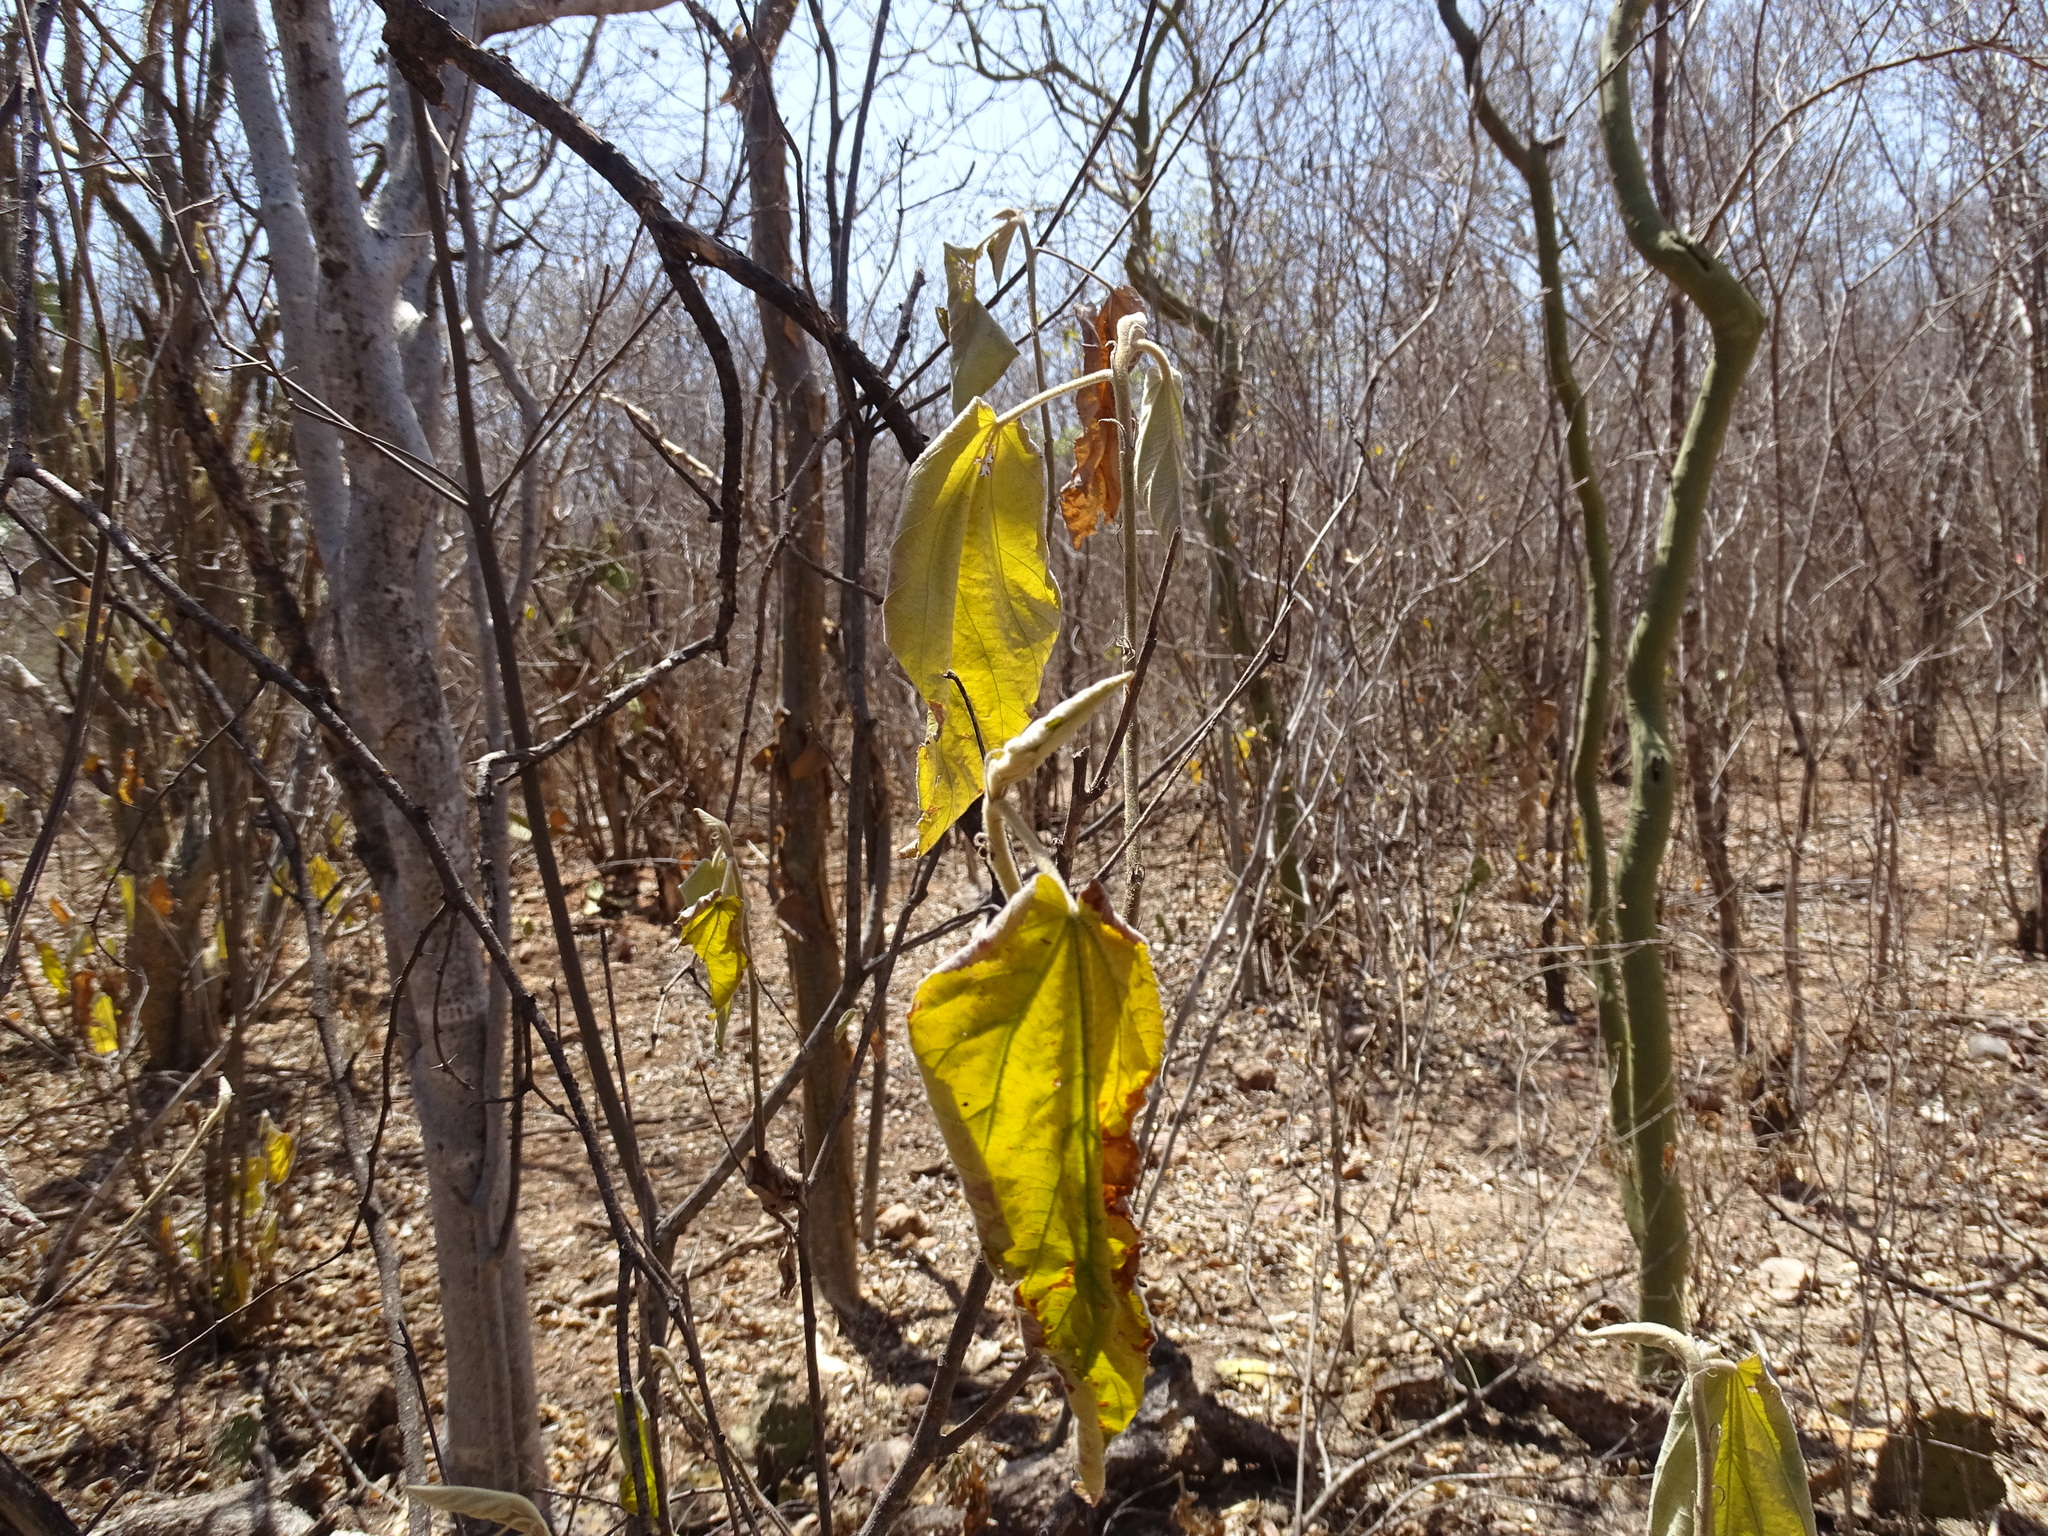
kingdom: Plantae
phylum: Tracheophyta
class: Magnoliopsida
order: Malvales
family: Malvaceae
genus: Helicteres
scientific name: Helicteres baruensis
